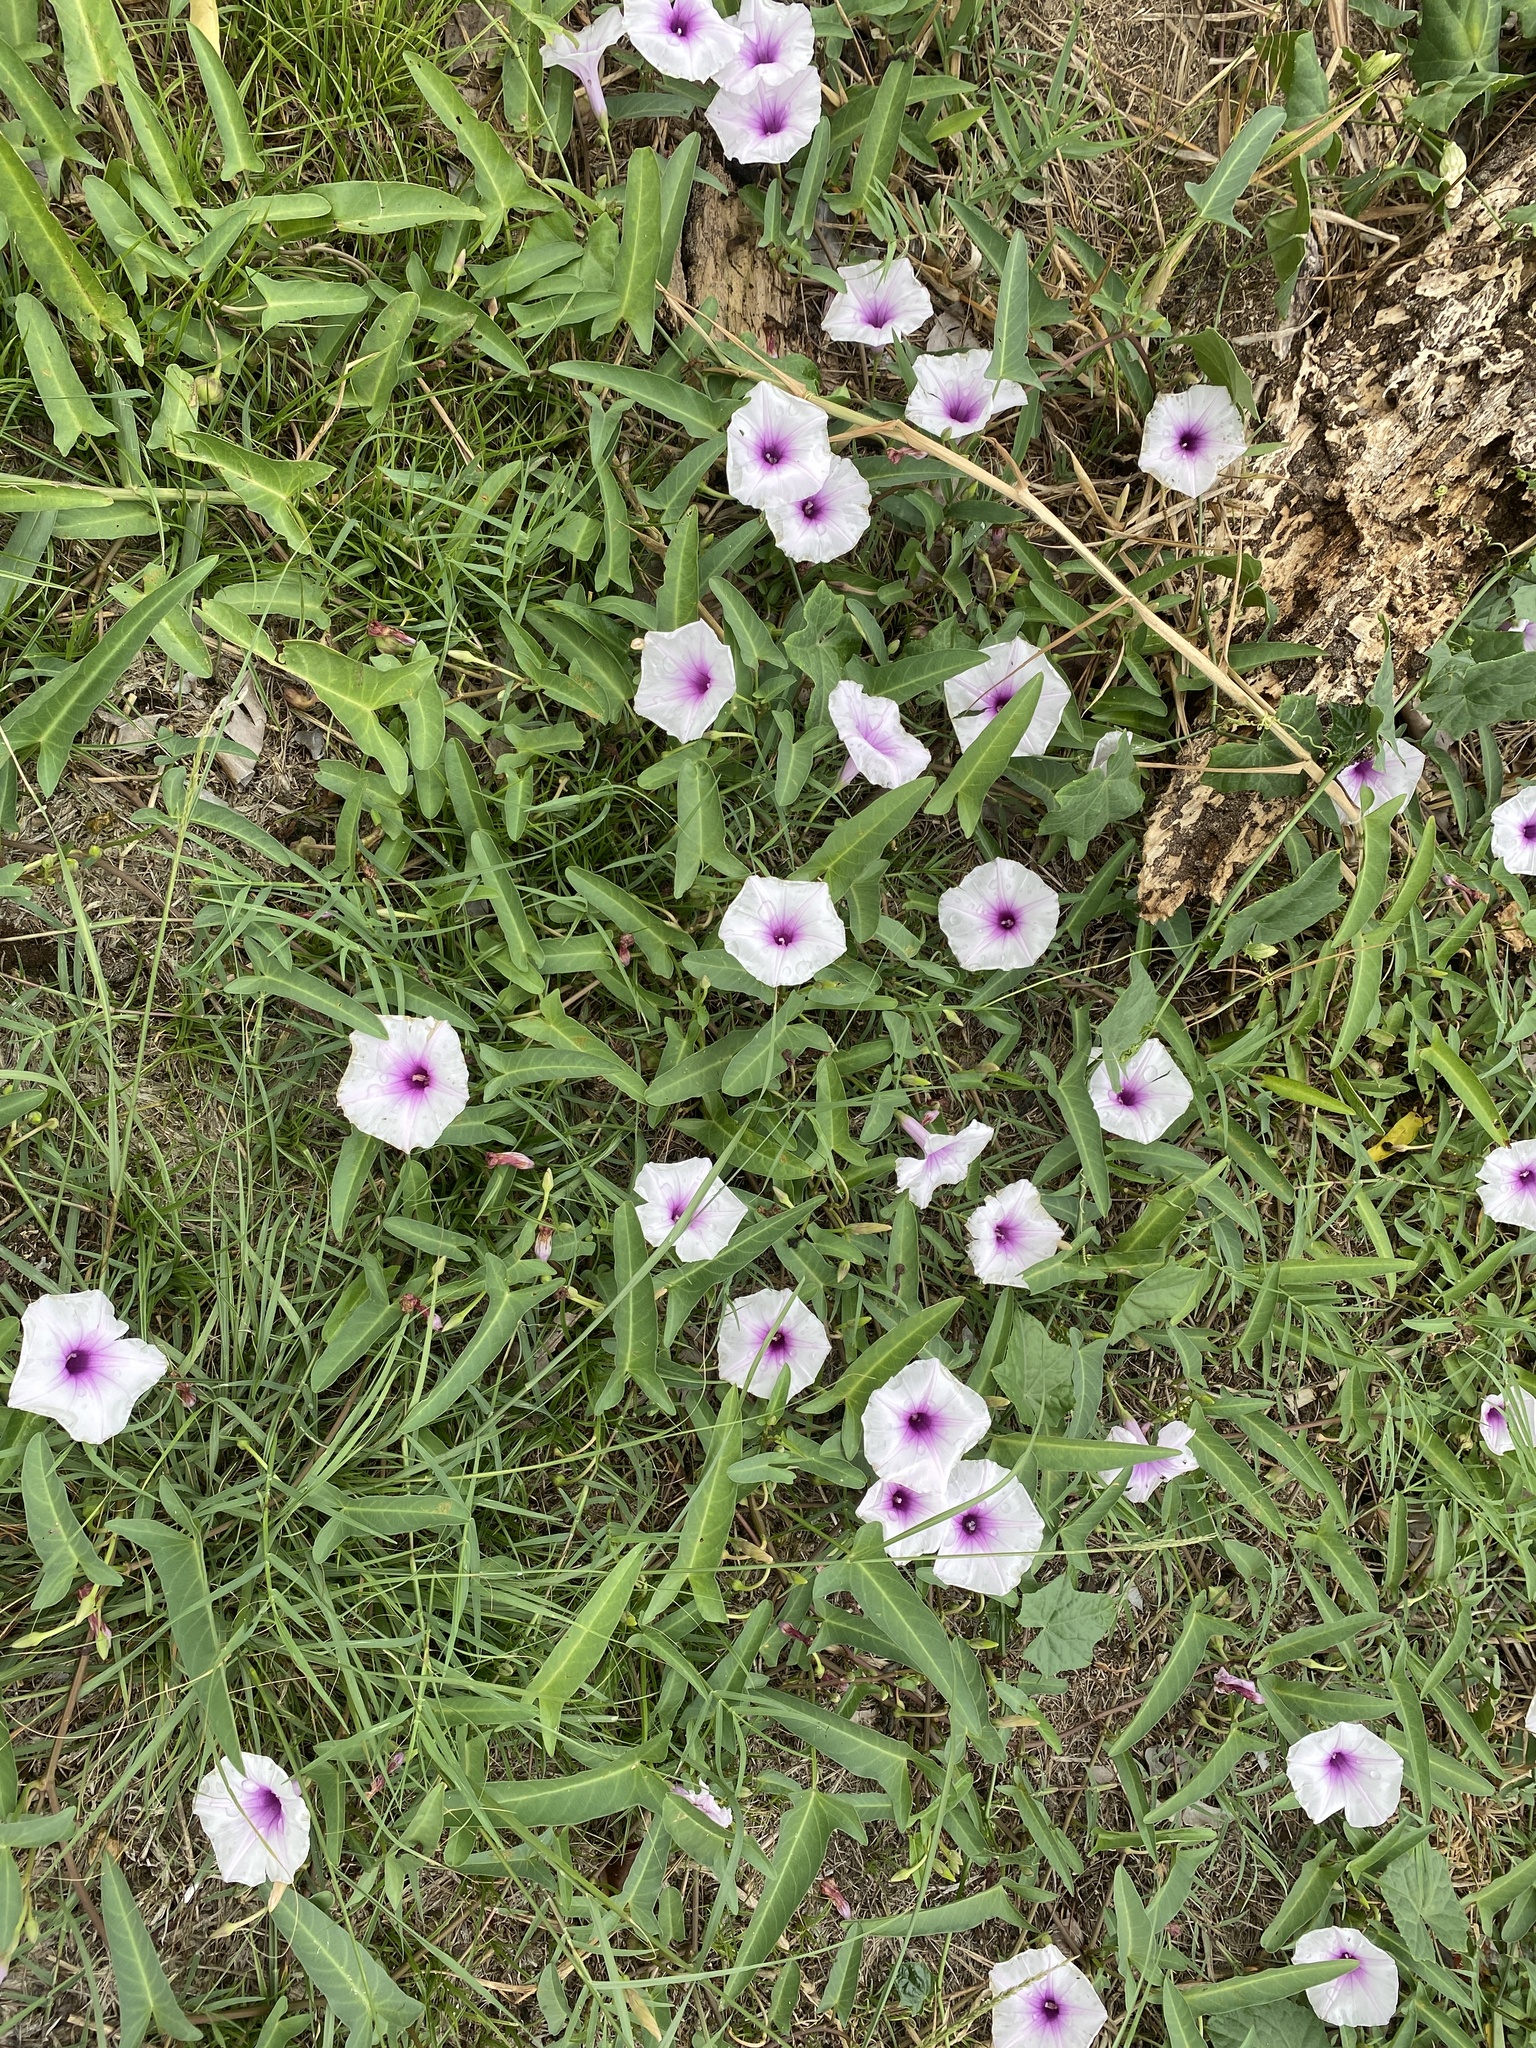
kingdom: Plantae
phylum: Tracheophyta
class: Magnoliopsida
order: Solanales
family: Convolvulaceae
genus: Ipomoea
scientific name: Ipomoea aquatica
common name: Swamp morning-glory
